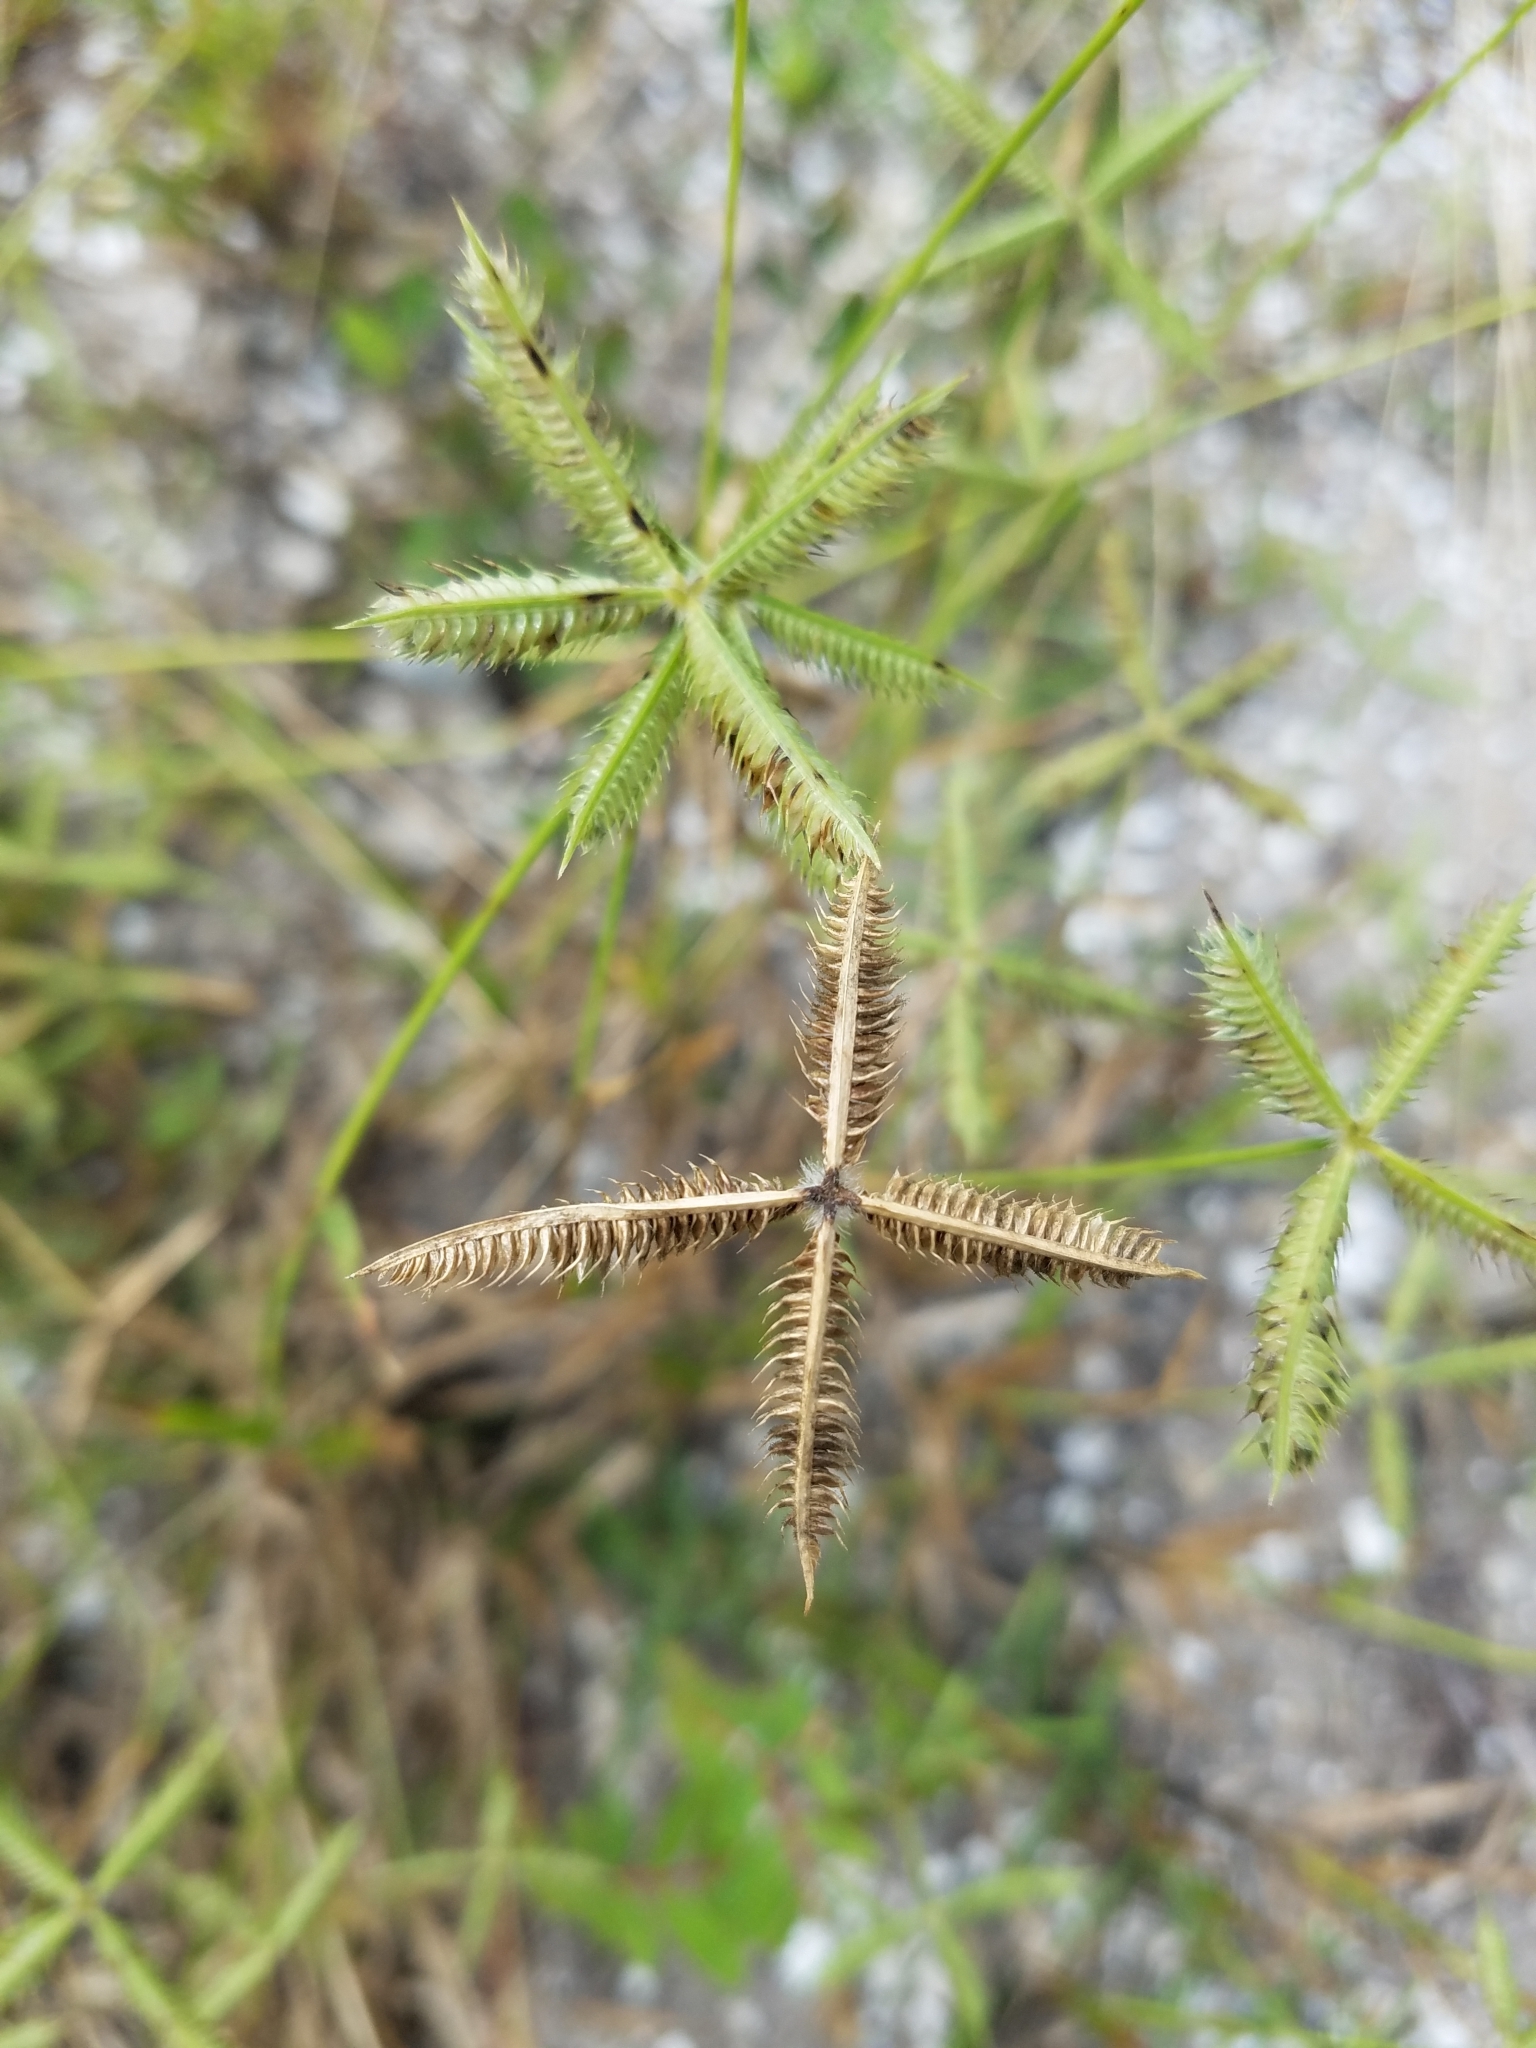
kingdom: Plantae
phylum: Tracheophyta
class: Liliopsida
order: Poales
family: Poaceae
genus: Dactyloctenium
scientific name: Dactyloctenium aegyptium
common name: Egyptian grass
